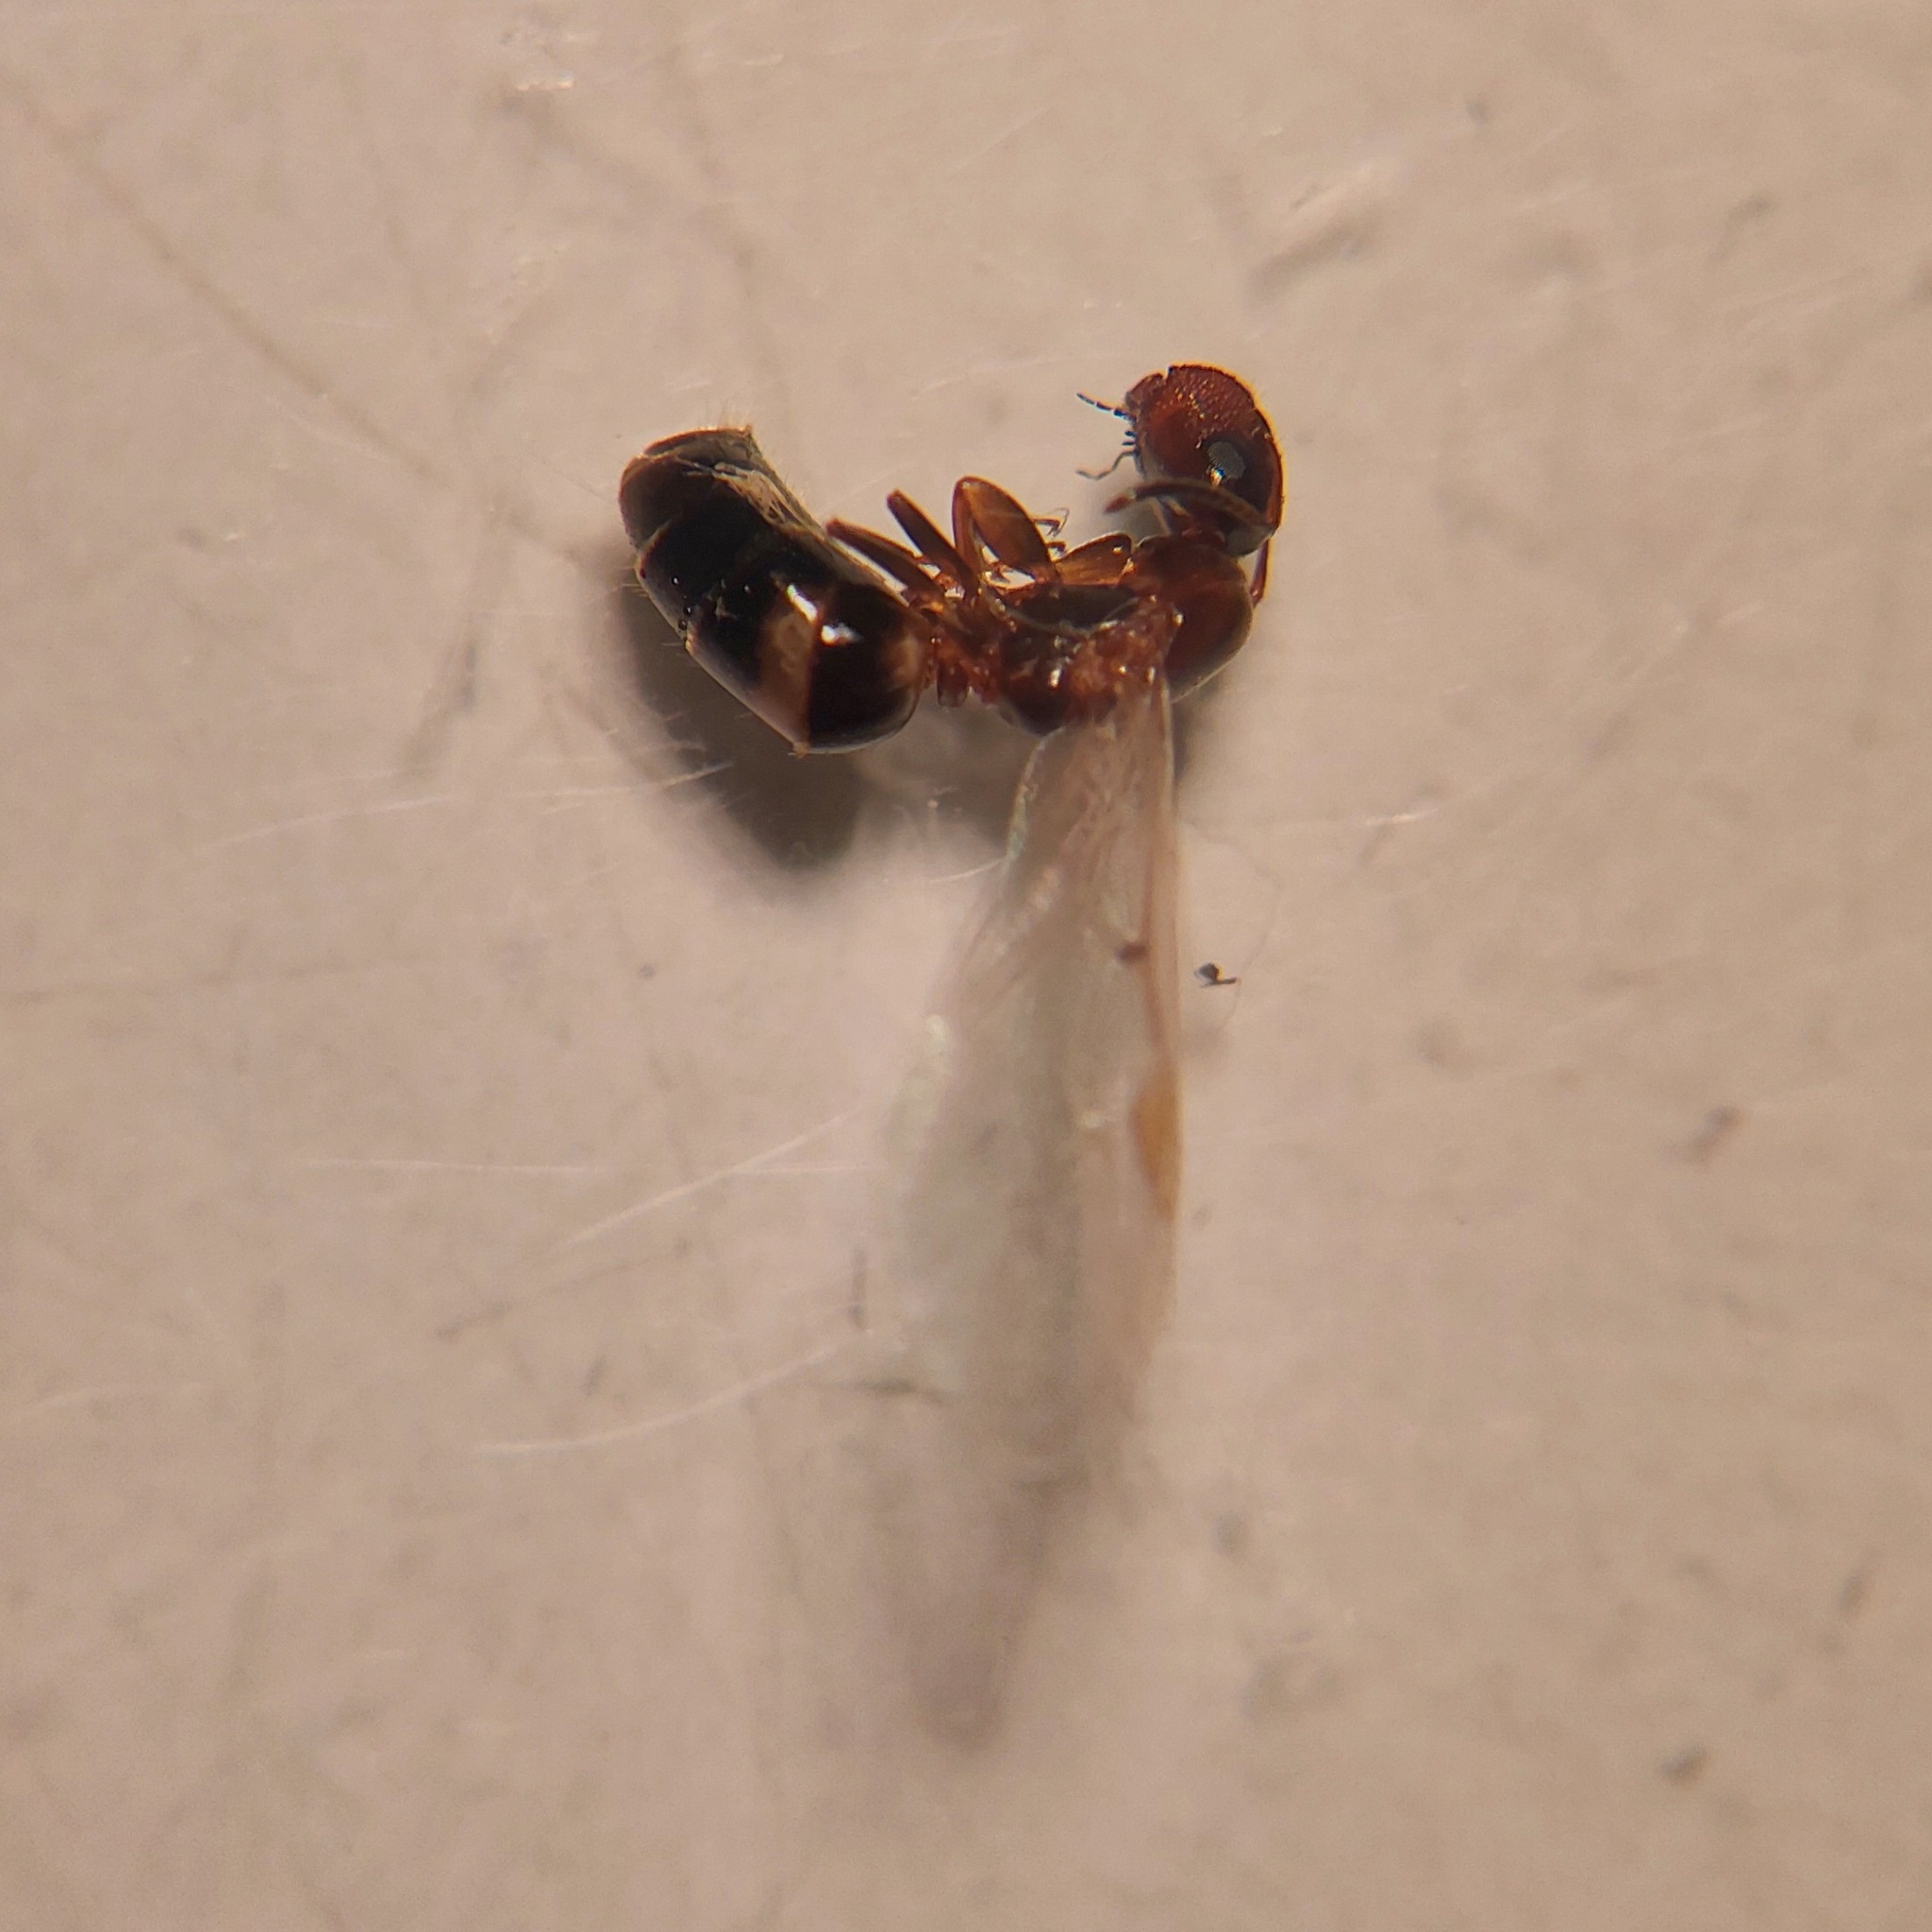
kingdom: Animalia
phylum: Arthropoda
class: Insecta
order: Hymenoptera
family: Formicidae
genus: Camponotus
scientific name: Camponotus truncatus
